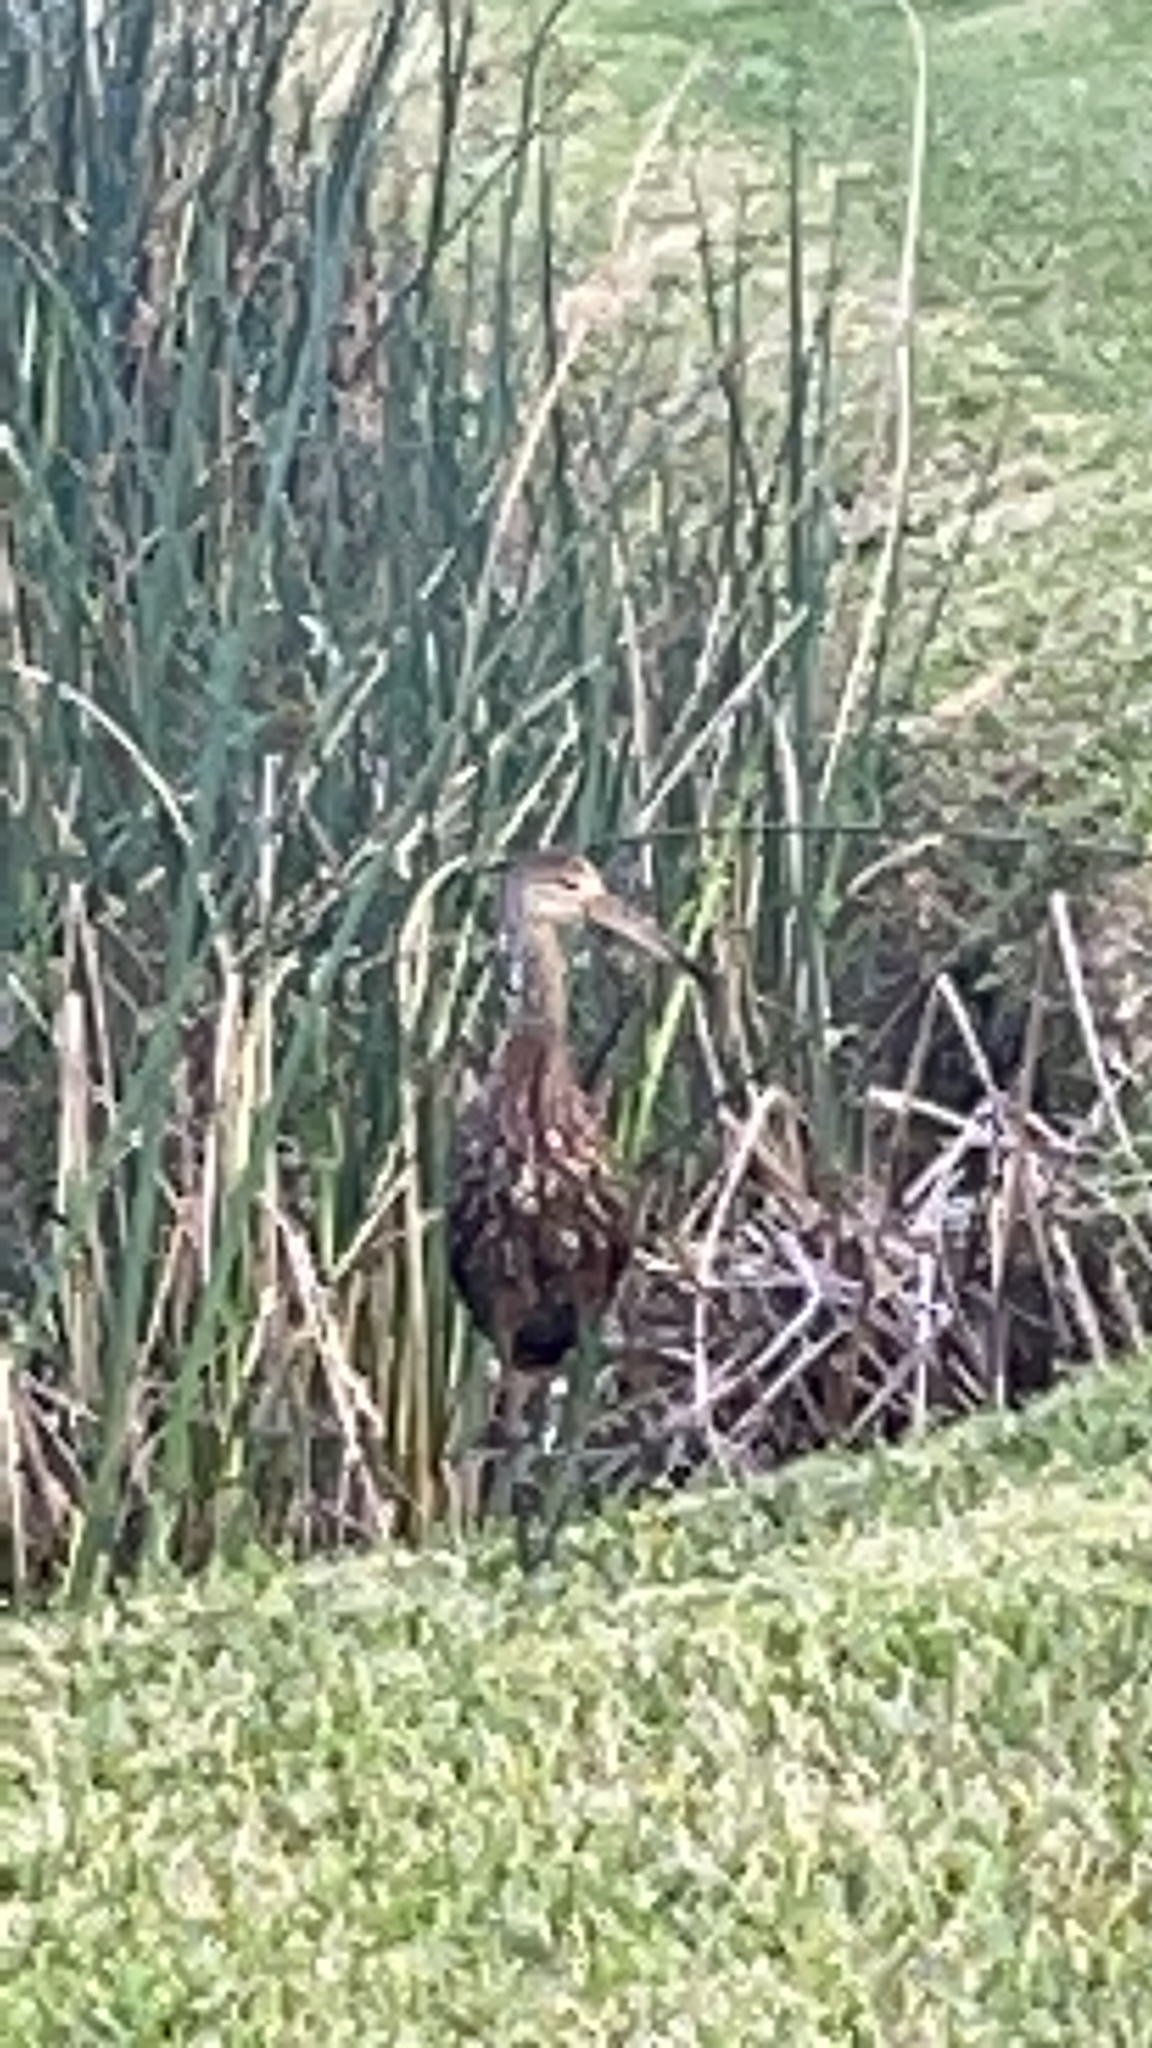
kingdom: Animalia
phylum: Chordata
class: Aves
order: Gruiformes
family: Aramidae
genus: Aramus
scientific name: Aramus guarauna
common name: Limpkin
